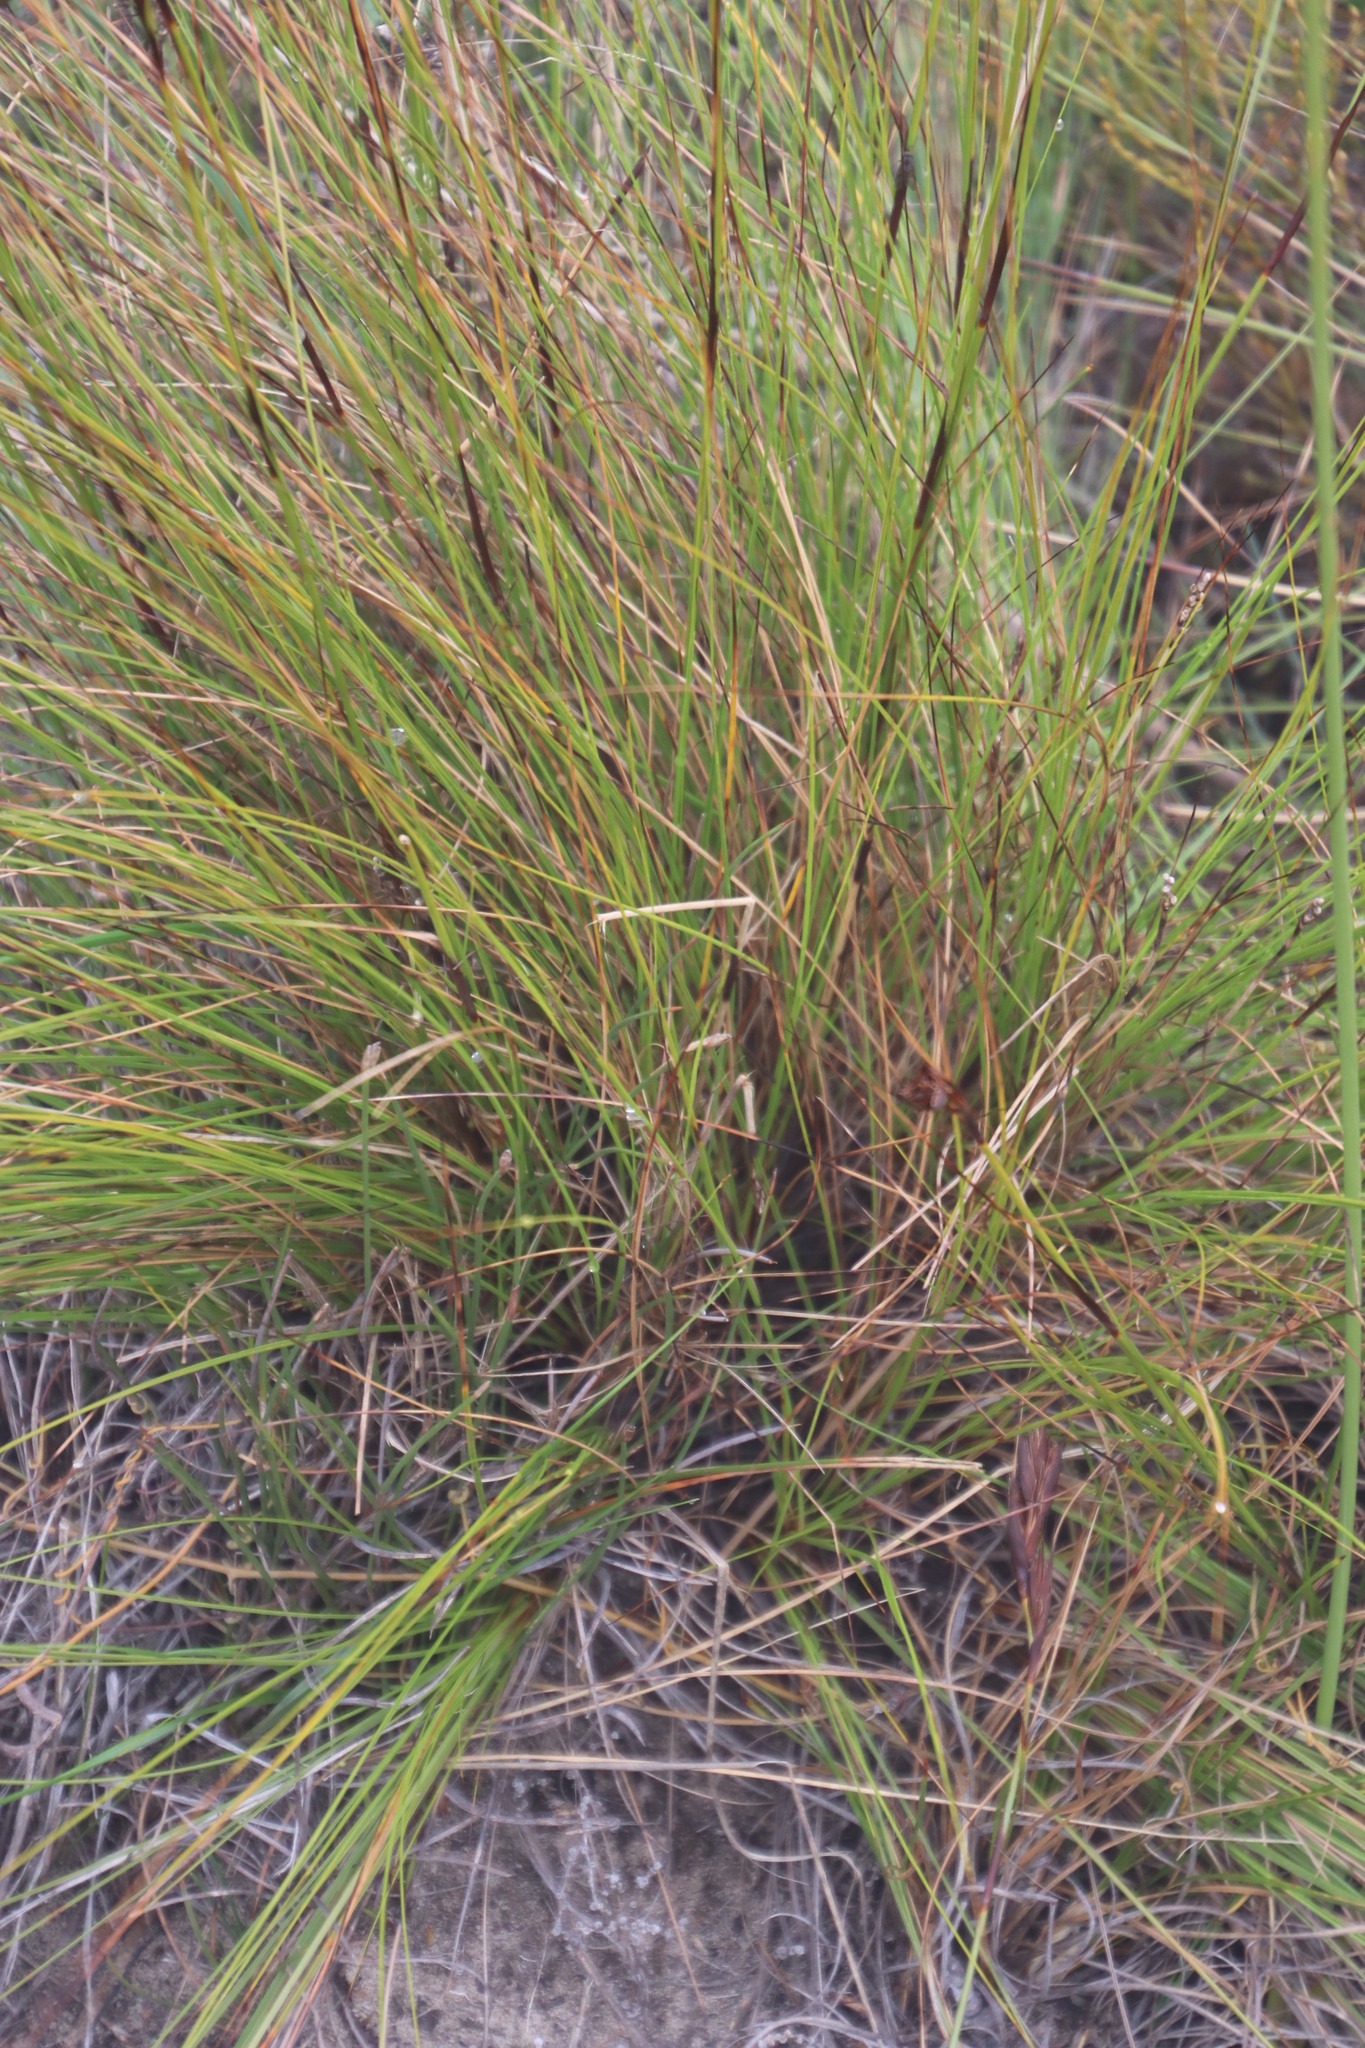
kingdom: Plantae
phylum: Tracheophyta
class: Liliopsida
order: Poales
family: Cyperaceae
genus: Tetraria
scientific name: Tetraria ustulata
